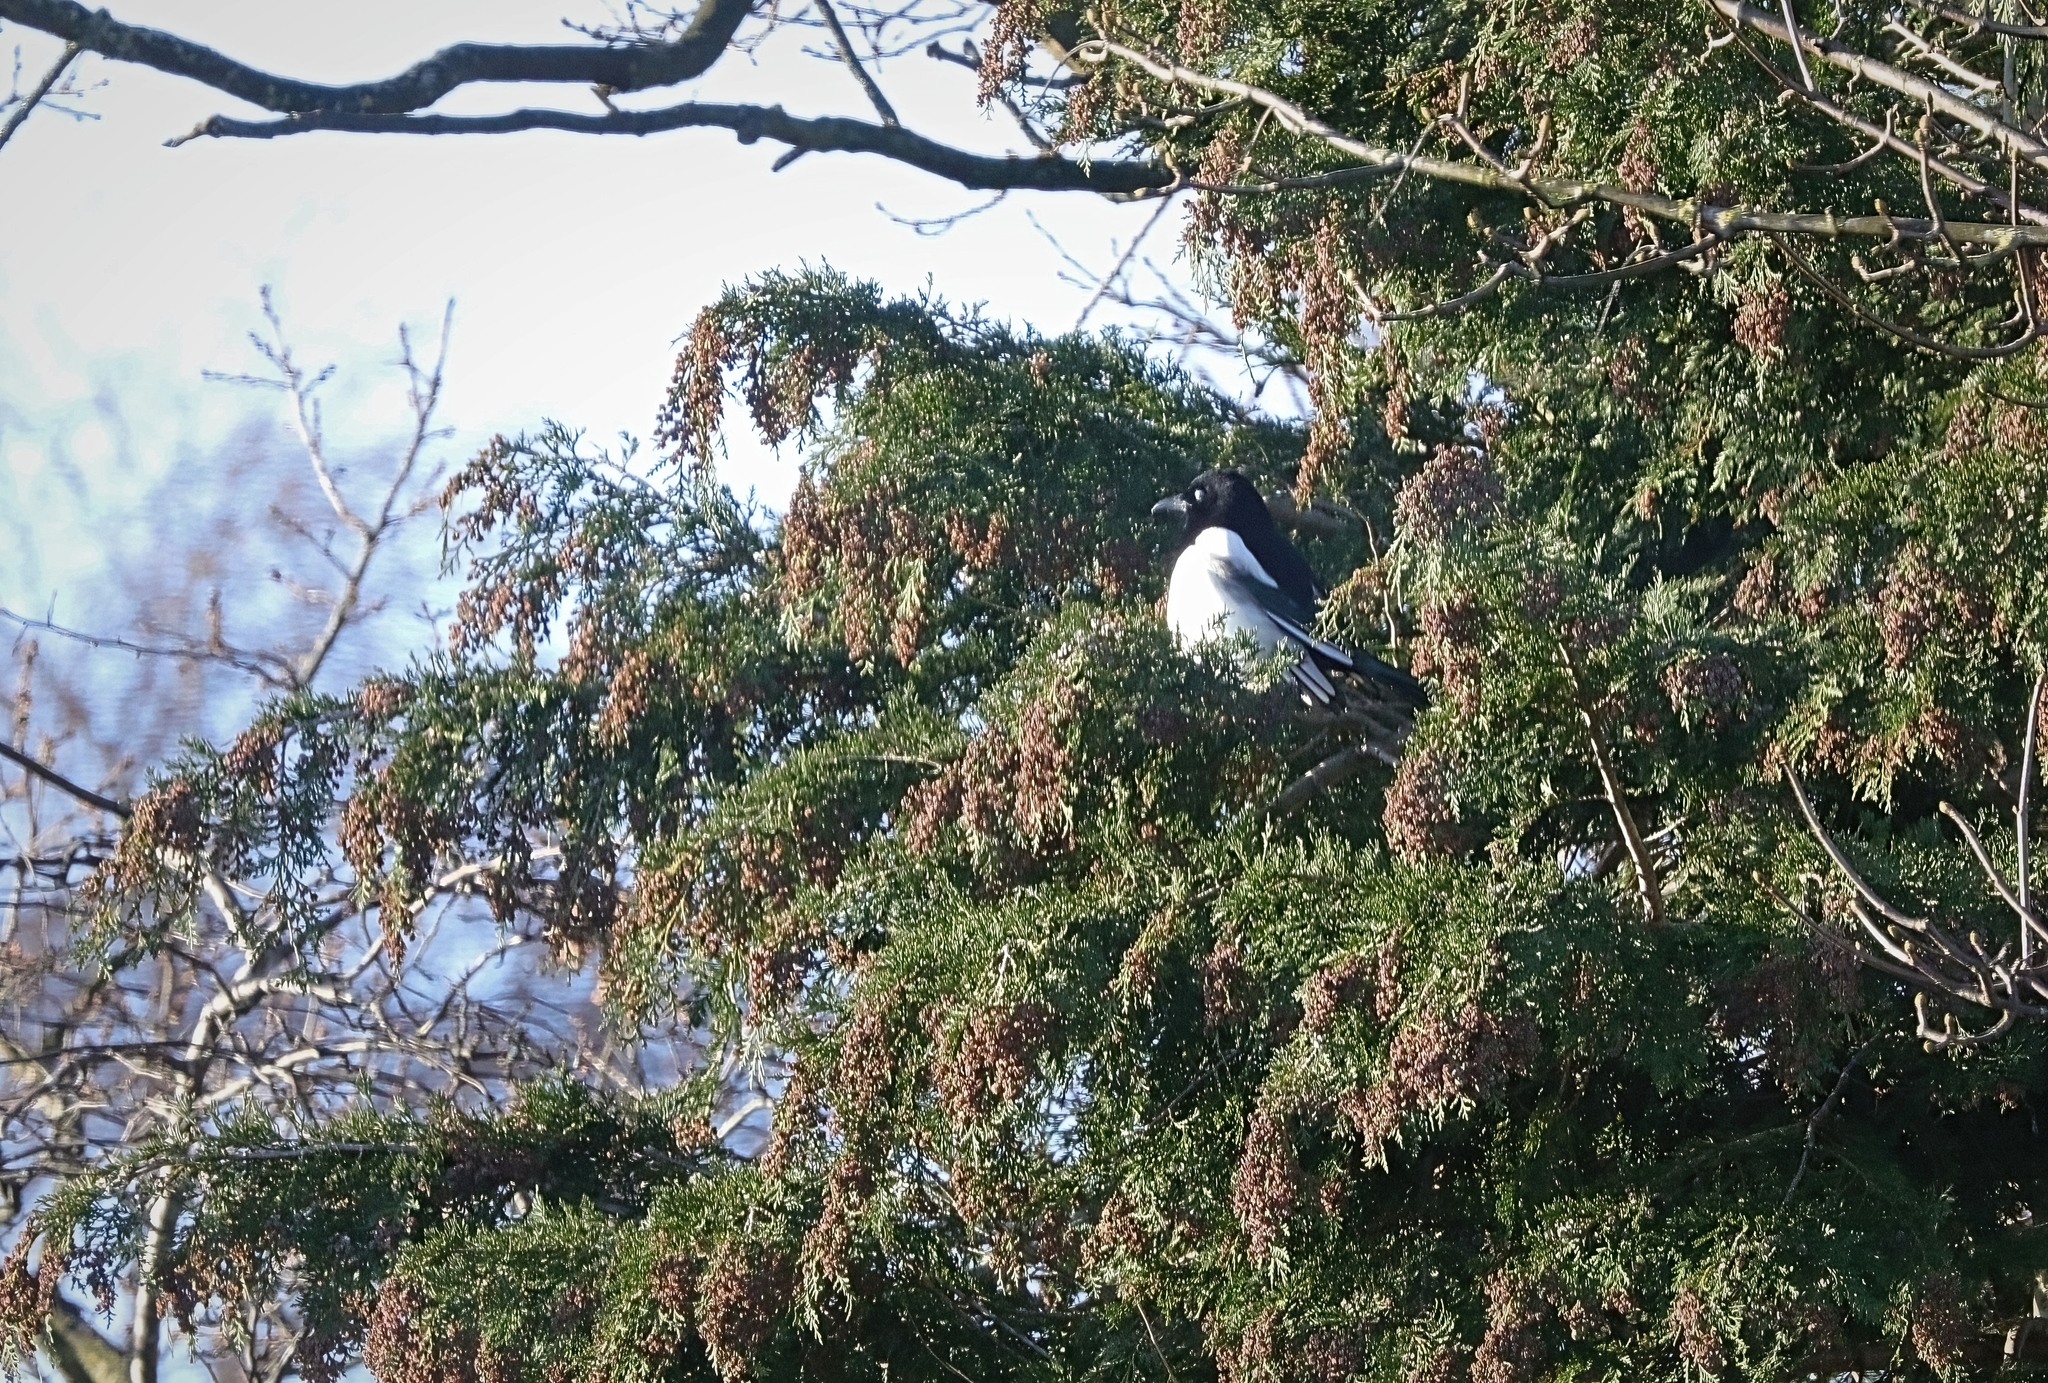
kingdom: Animalia
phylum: Chordata
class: Aves
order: Passeriformes
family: Corvidae
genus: Pica
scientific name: Pica pica
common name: Eurasian magpie
